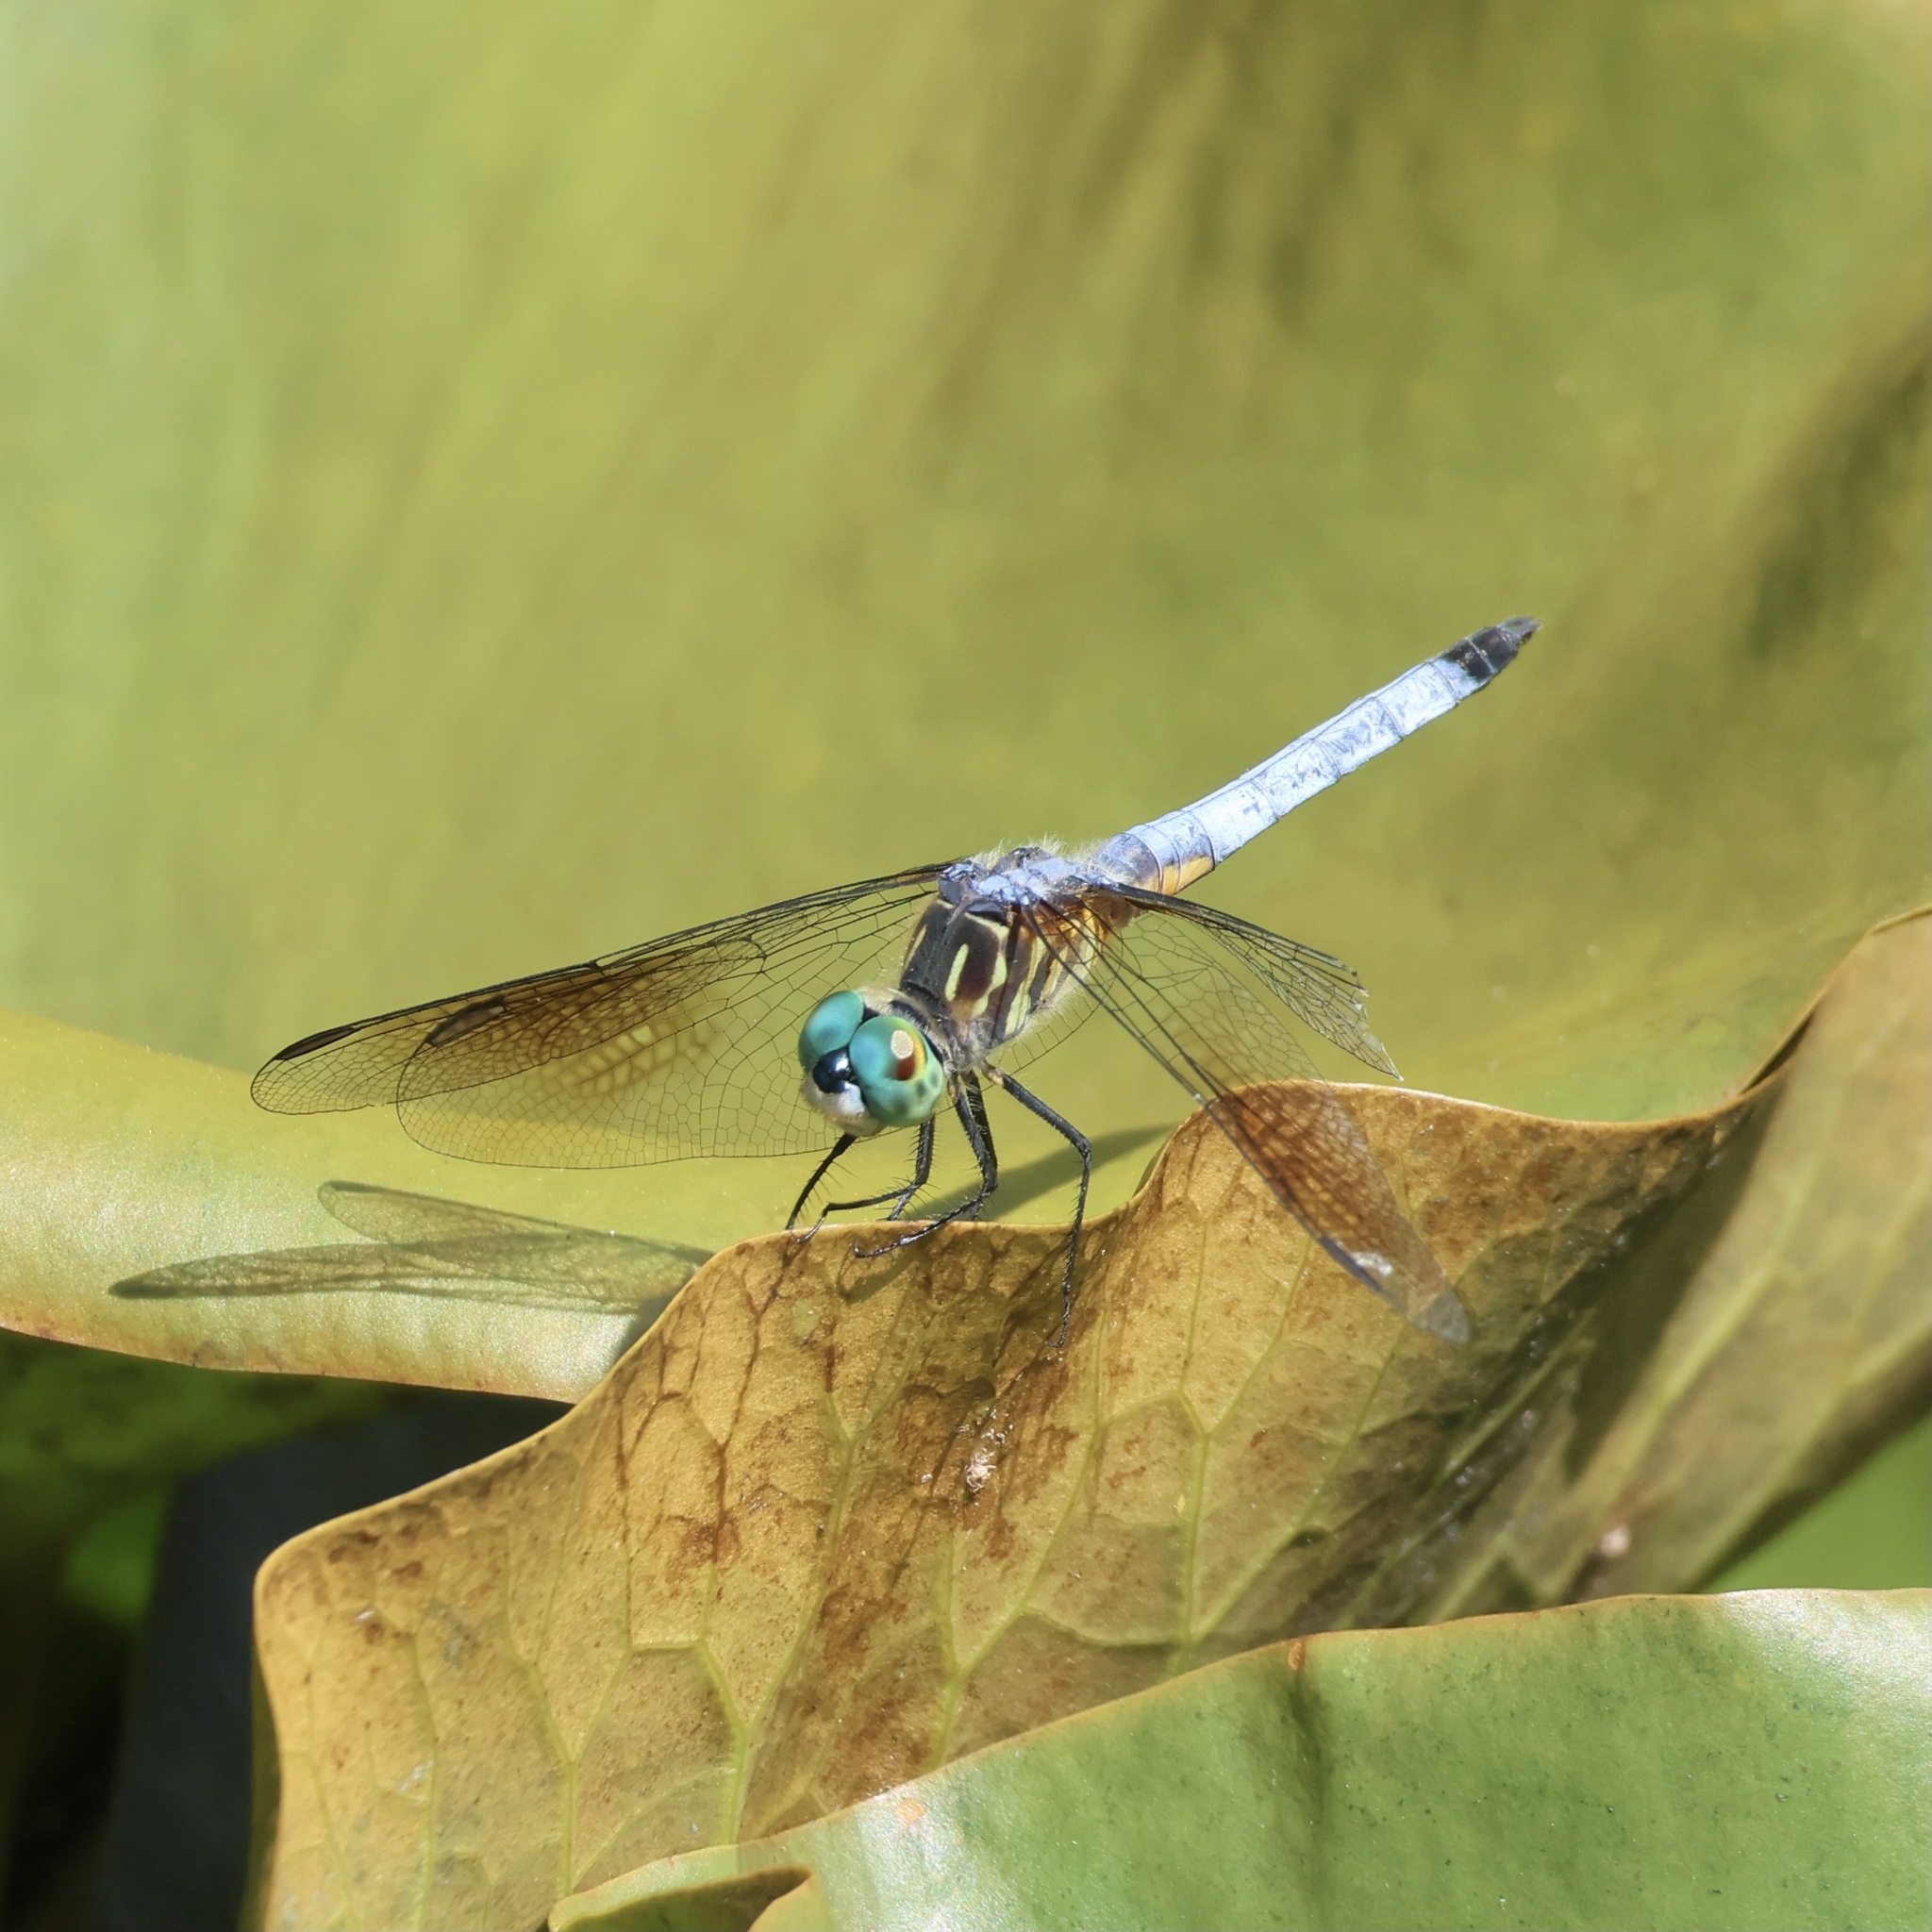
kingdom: Animalia
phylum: Arthropoda
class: Insecta
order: Odonata
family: Libellulidae
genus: Pachydiplax
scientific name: Pachydiplax longipennis
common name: Blue dasher
